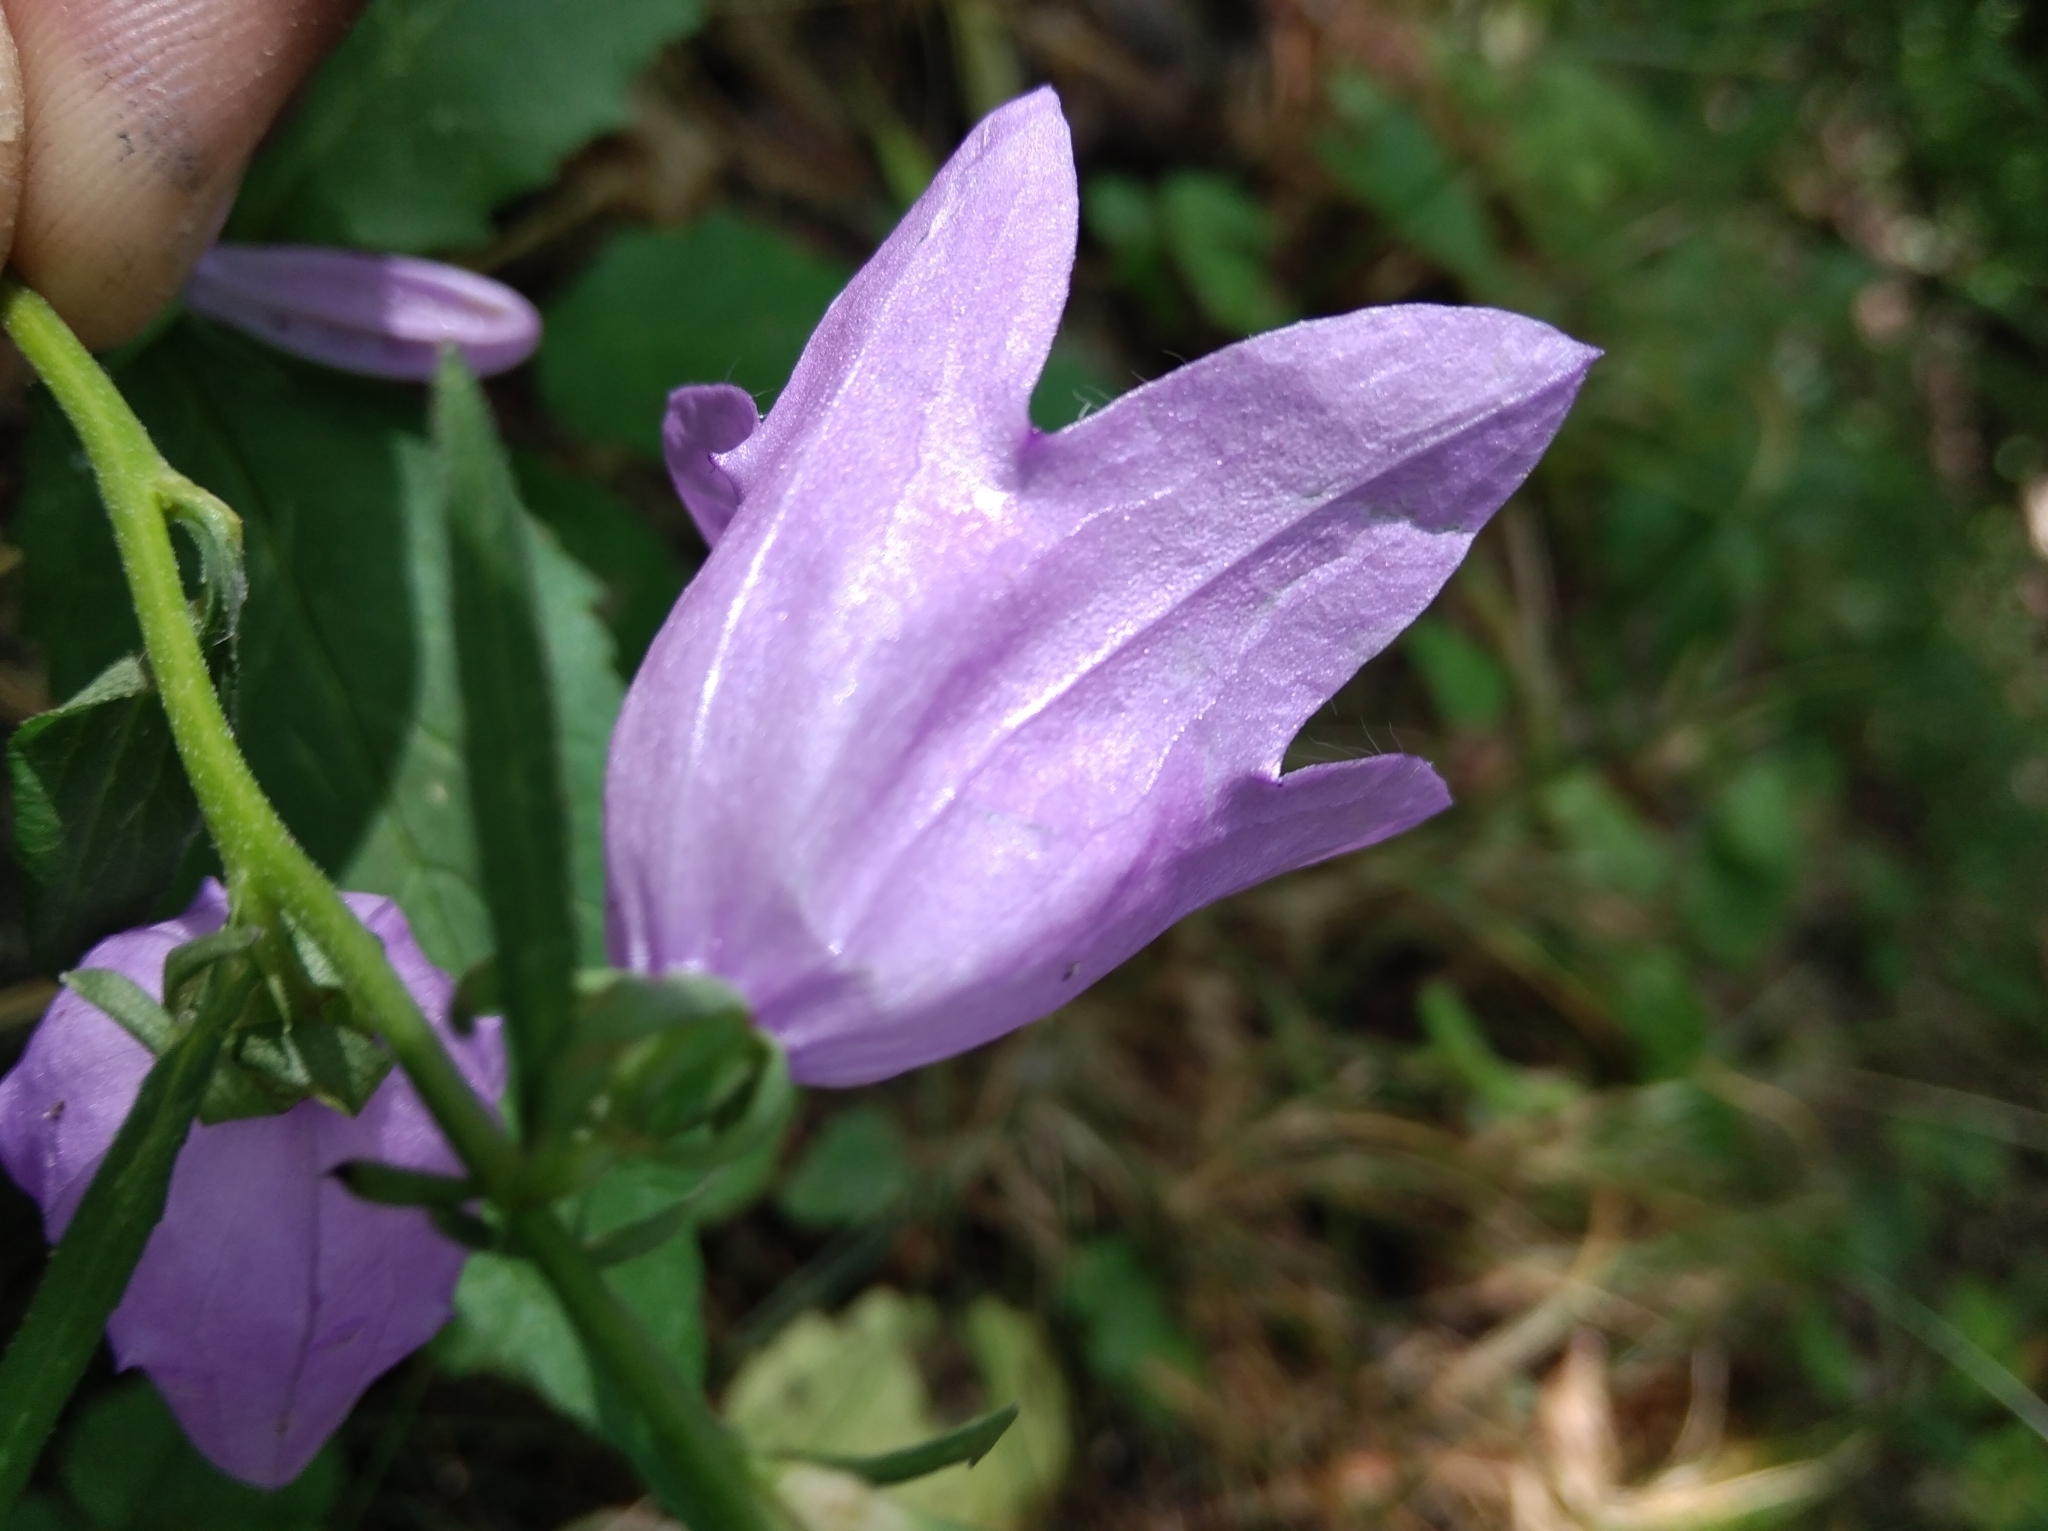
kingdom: Plantae
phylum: Tracheophyta
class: Magnoliopsida
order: Asterales
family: Campanulaceae
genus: Campanula
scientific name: Campanula rapunculoides
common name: Creeping bellflower
